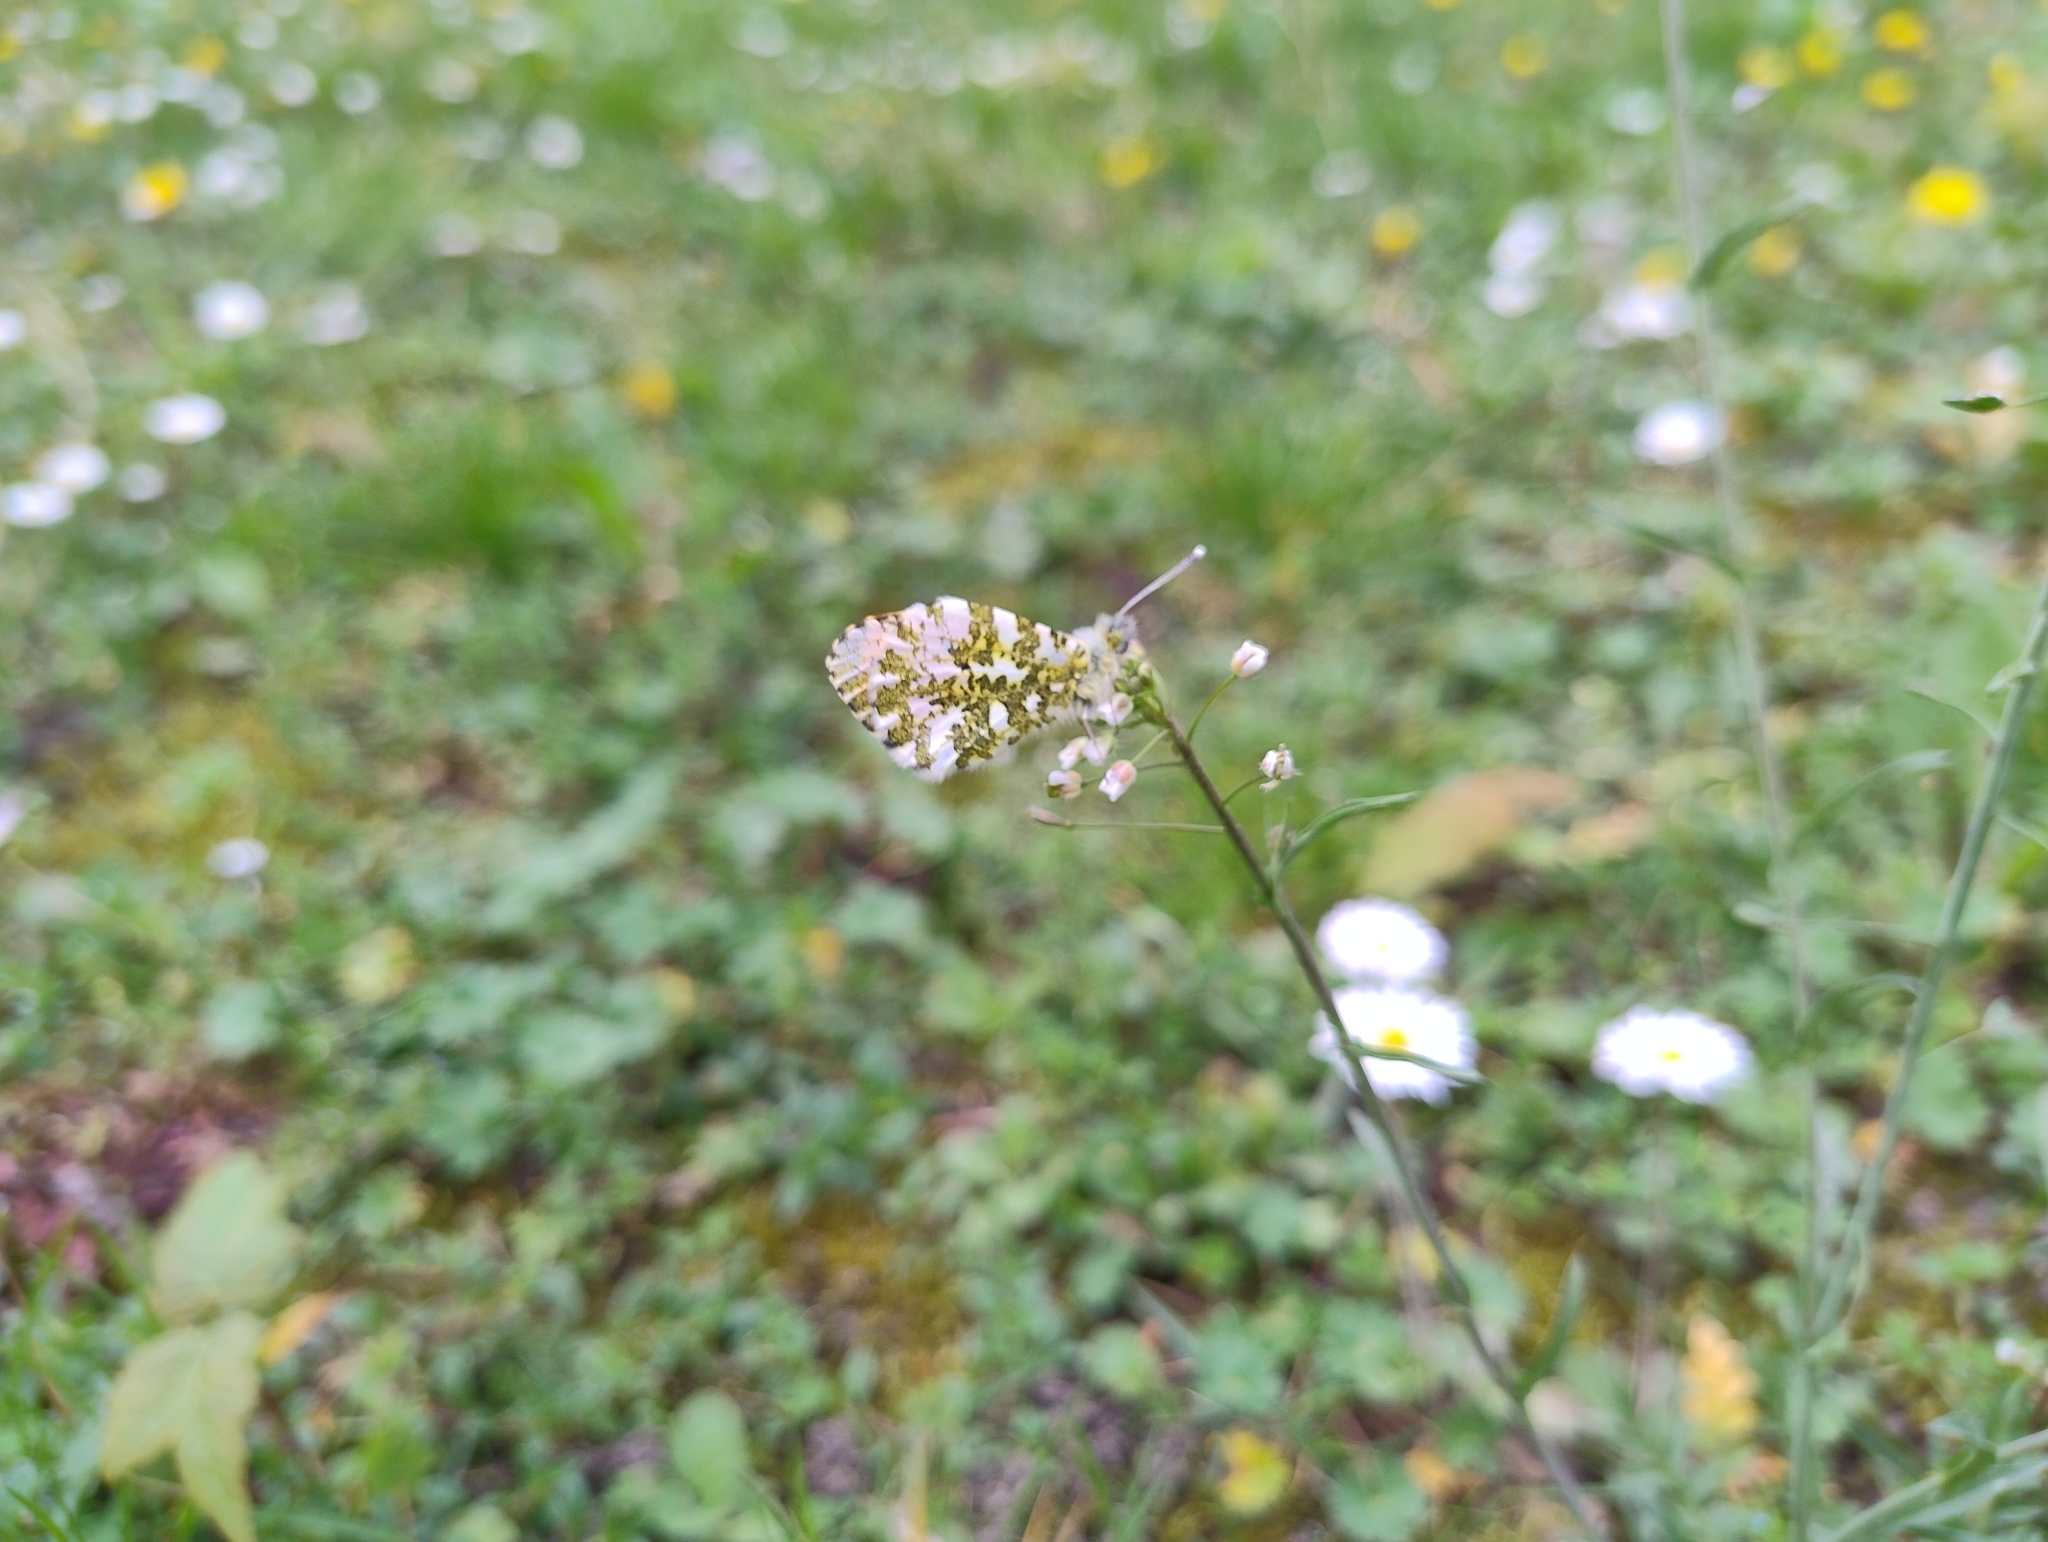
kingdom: Animalia
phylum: Arthropoda
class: Insecta
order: Lepidoptera
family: Pieridae
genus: Anthocharis
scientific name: Anthocharis cardamines
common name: Orange-tip
